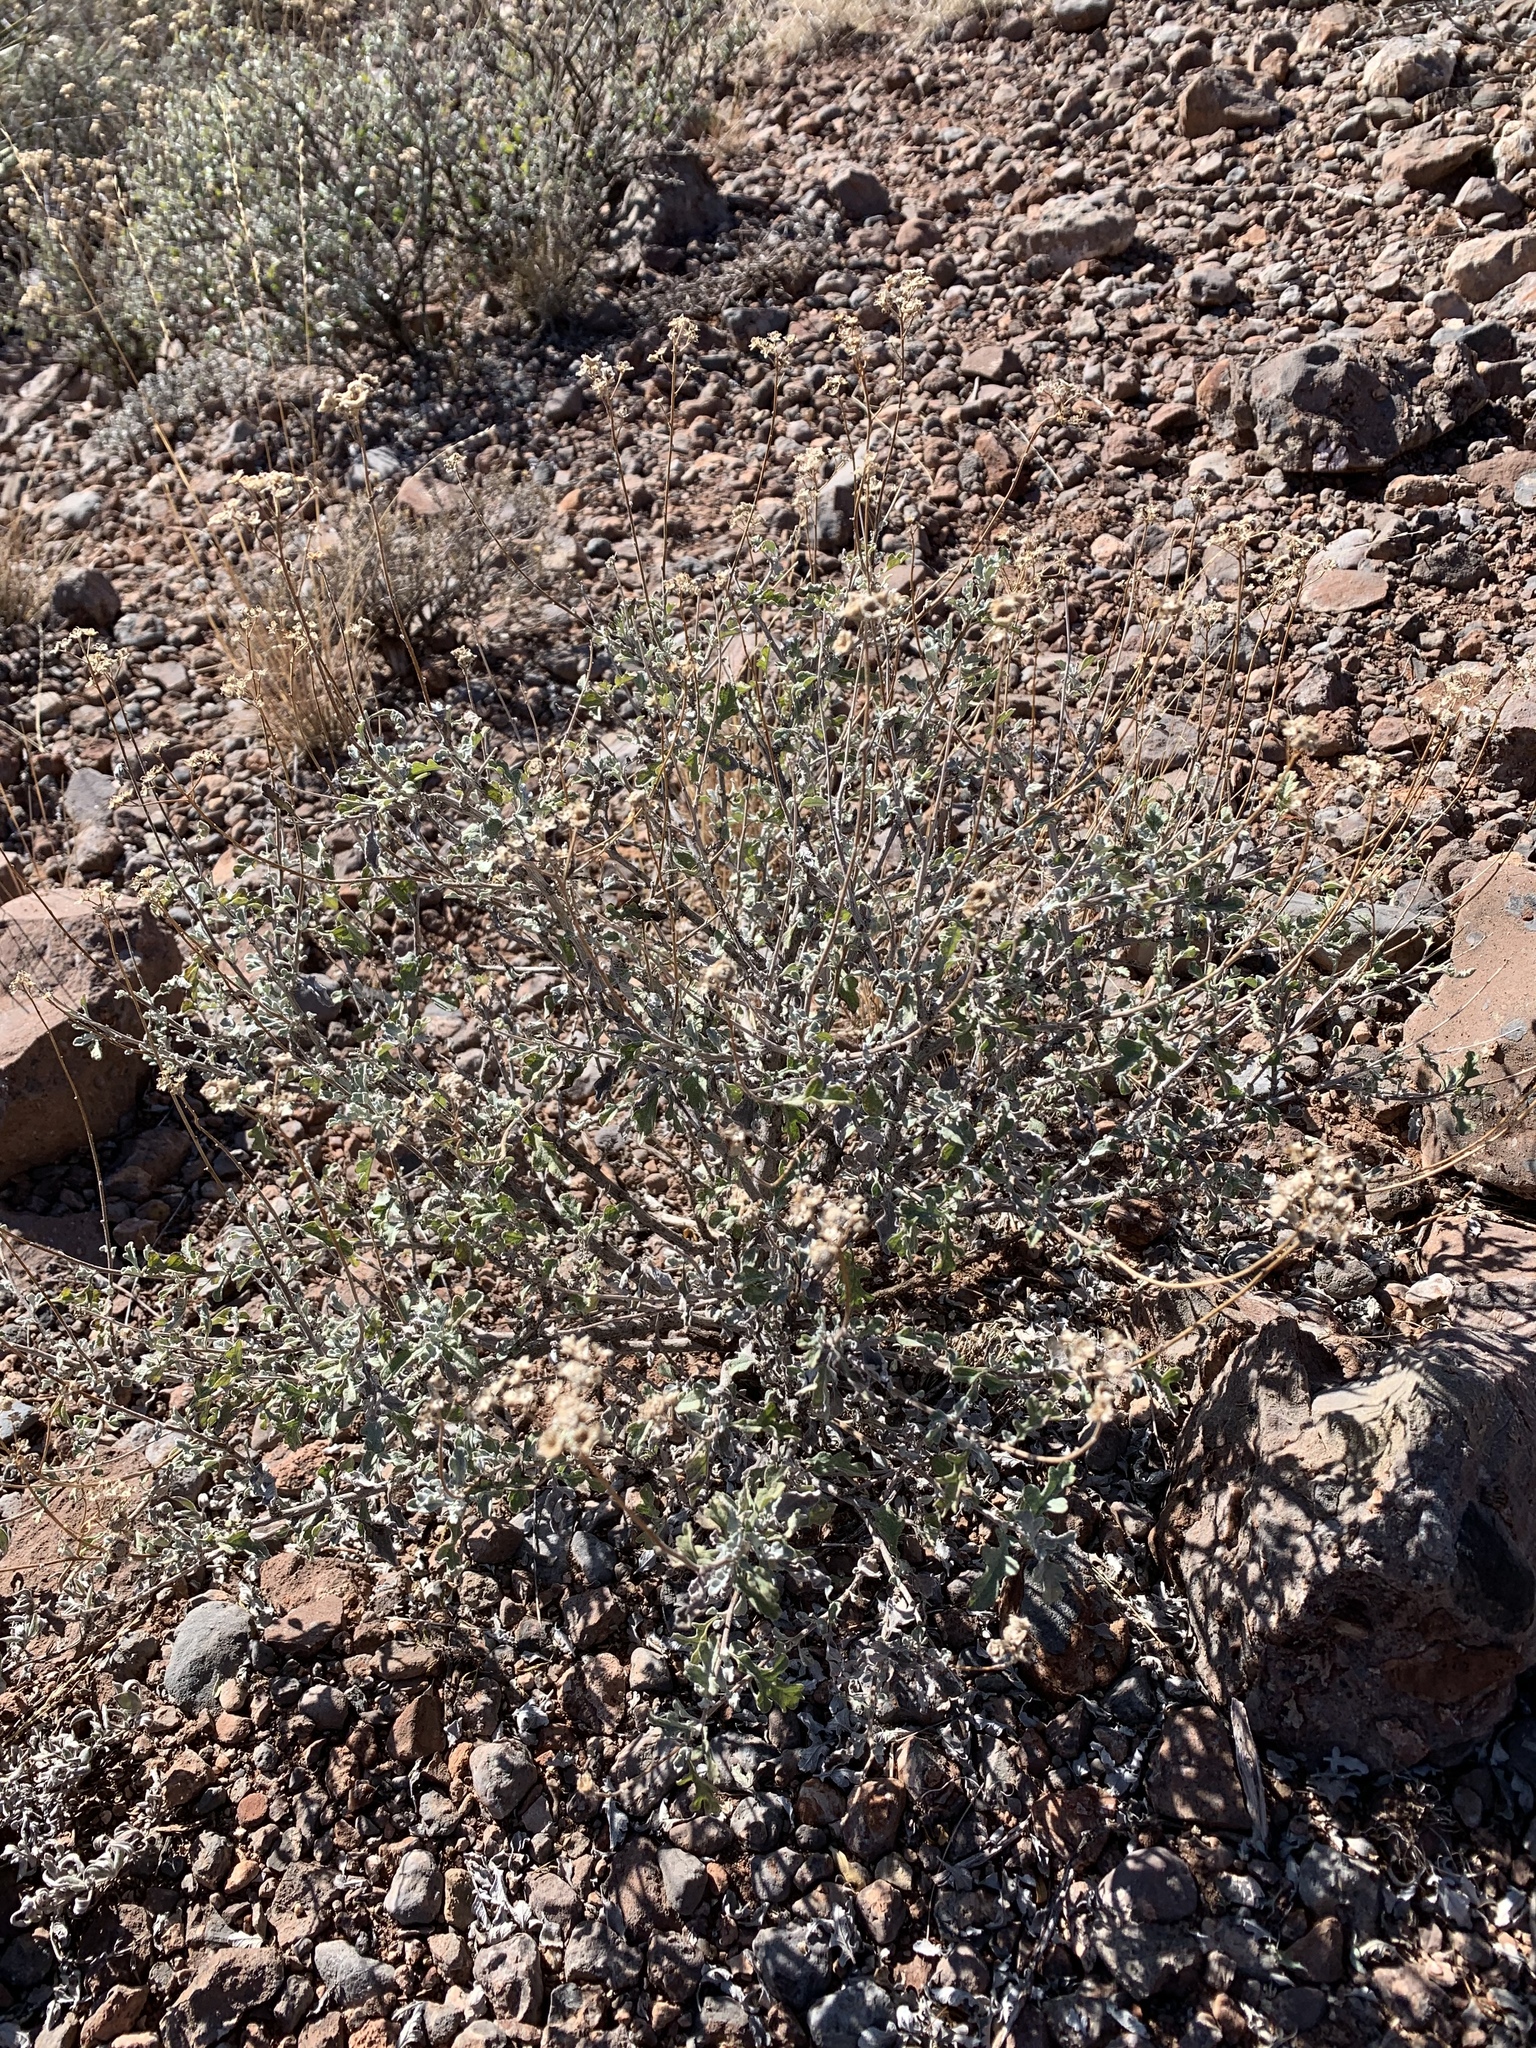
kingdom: Plantae
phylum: Tracheophyta
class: Magnoliopsida
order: Asterales
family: Asteraceae
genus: Parthenium
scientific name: Parthenium incanum
